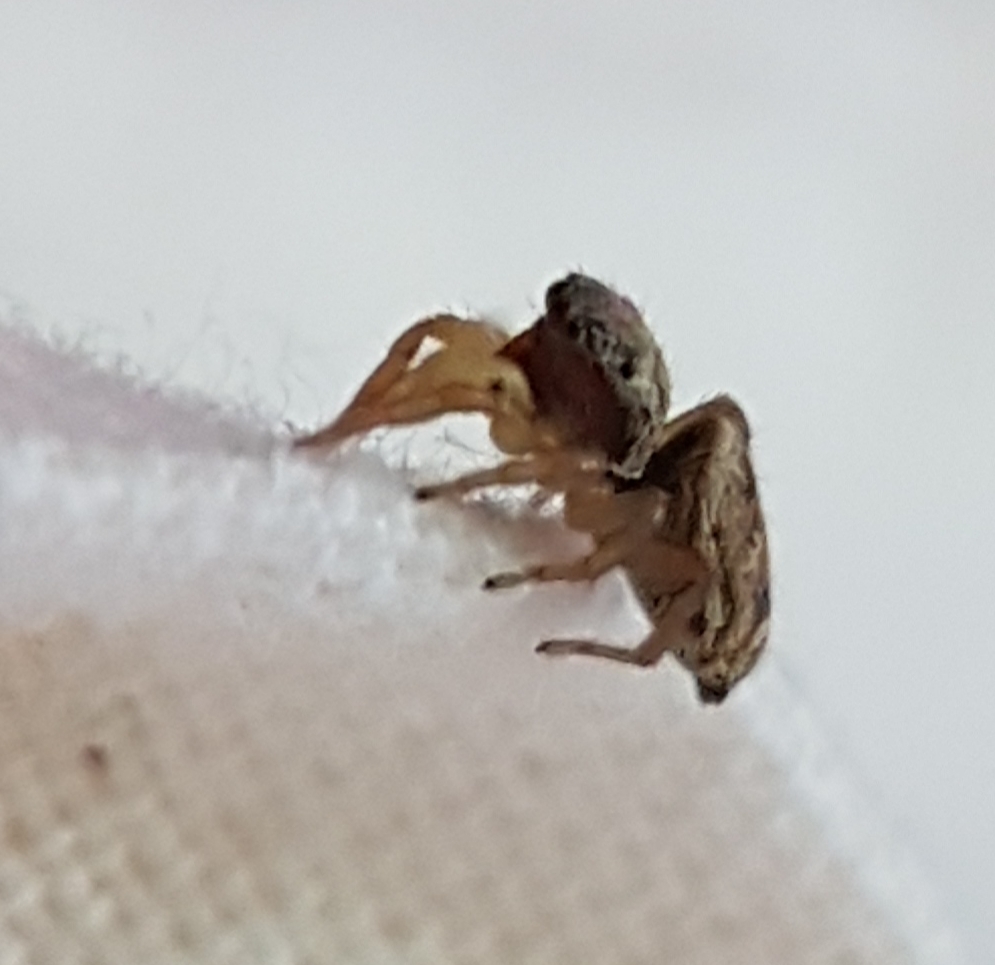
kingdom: Animalia
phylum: Arthropoda
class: Arachnida
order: Araneae
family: Salticidae
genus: Heliophanus
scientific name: Heliophanus tribulosus
